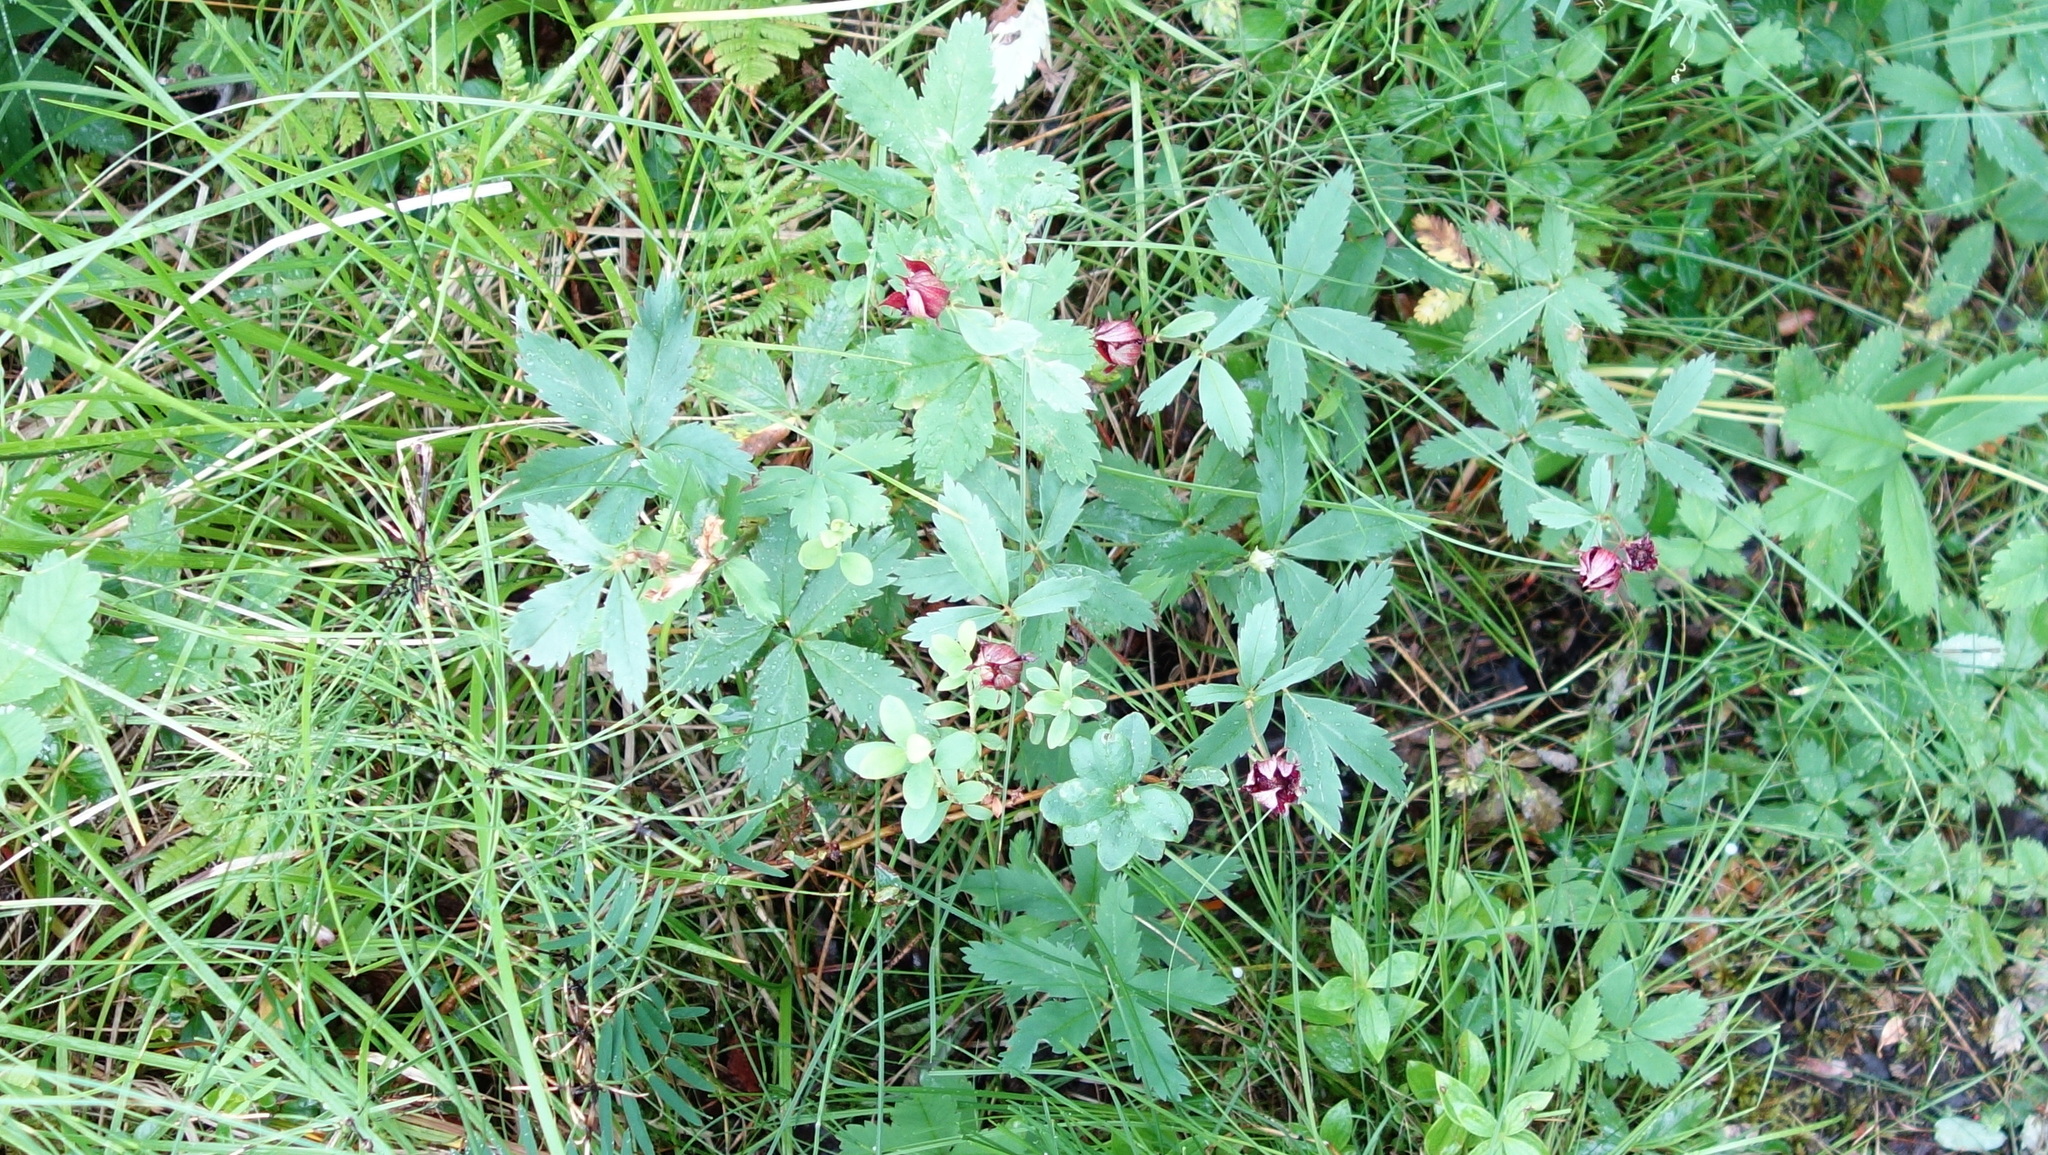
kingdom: Plantae
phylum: Tracheophyta
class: Magnoliopsida
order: Rosales
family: Rosaceae
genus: Comarum
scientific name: Comarum palustre
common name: Marsh cinquefoil
